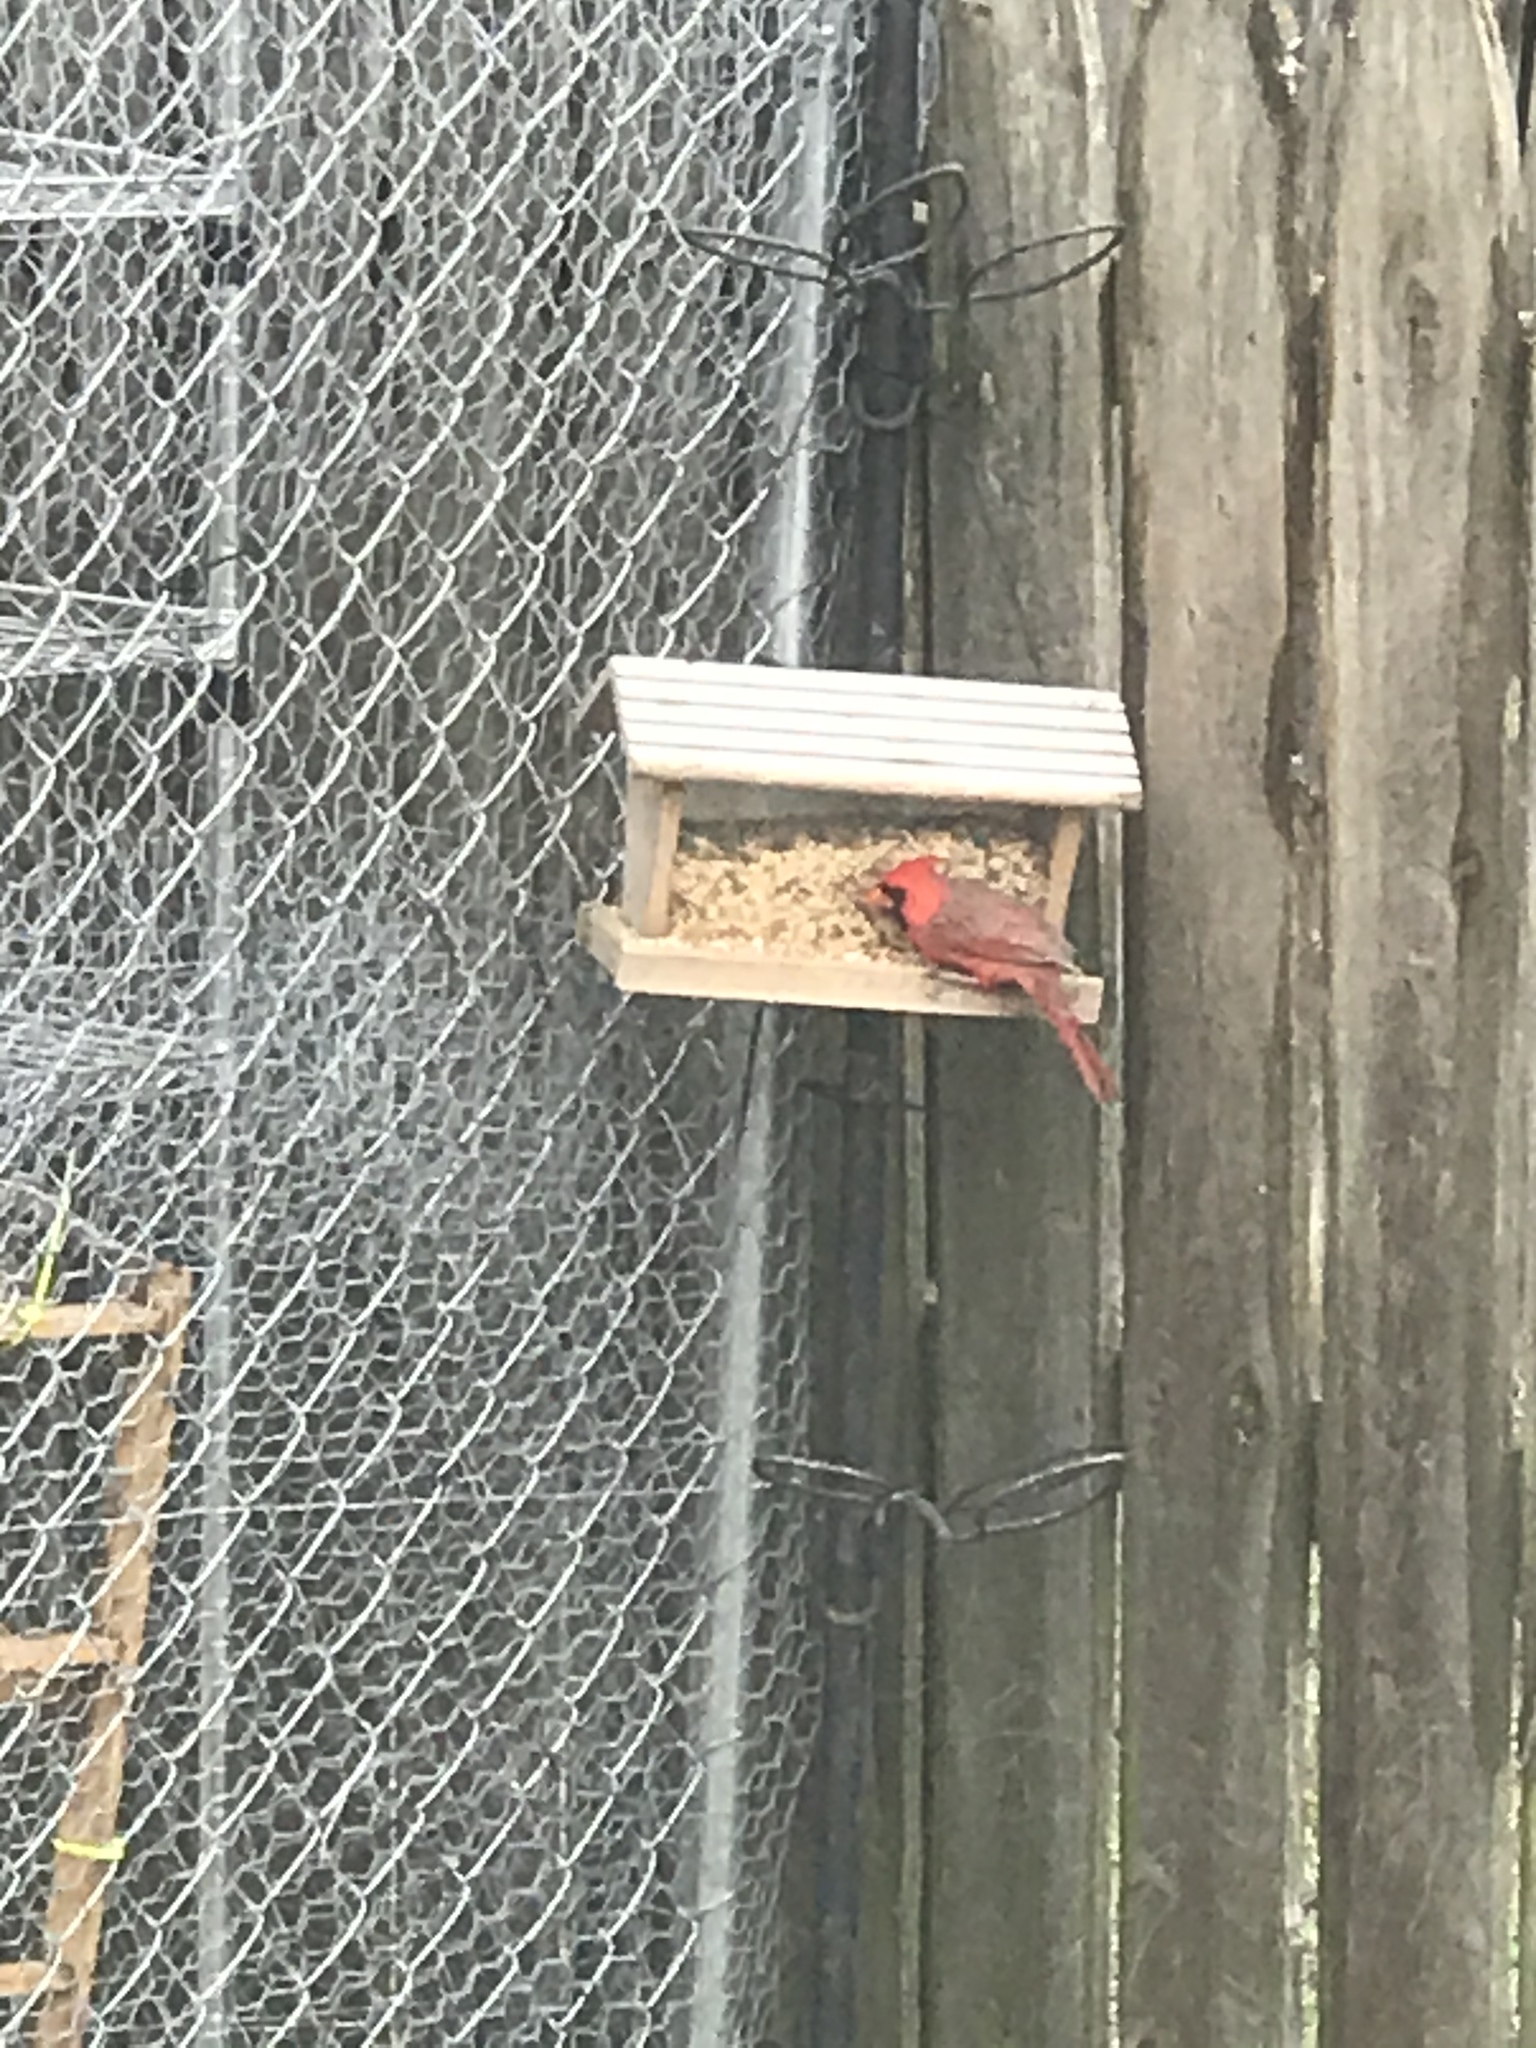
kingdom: Animalia
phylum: Chordata
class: Aves
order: Passeriformes
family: Cardinalidae
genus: Cardinalis
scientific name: Cardinalis cardinalis
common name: Northern cardinal
